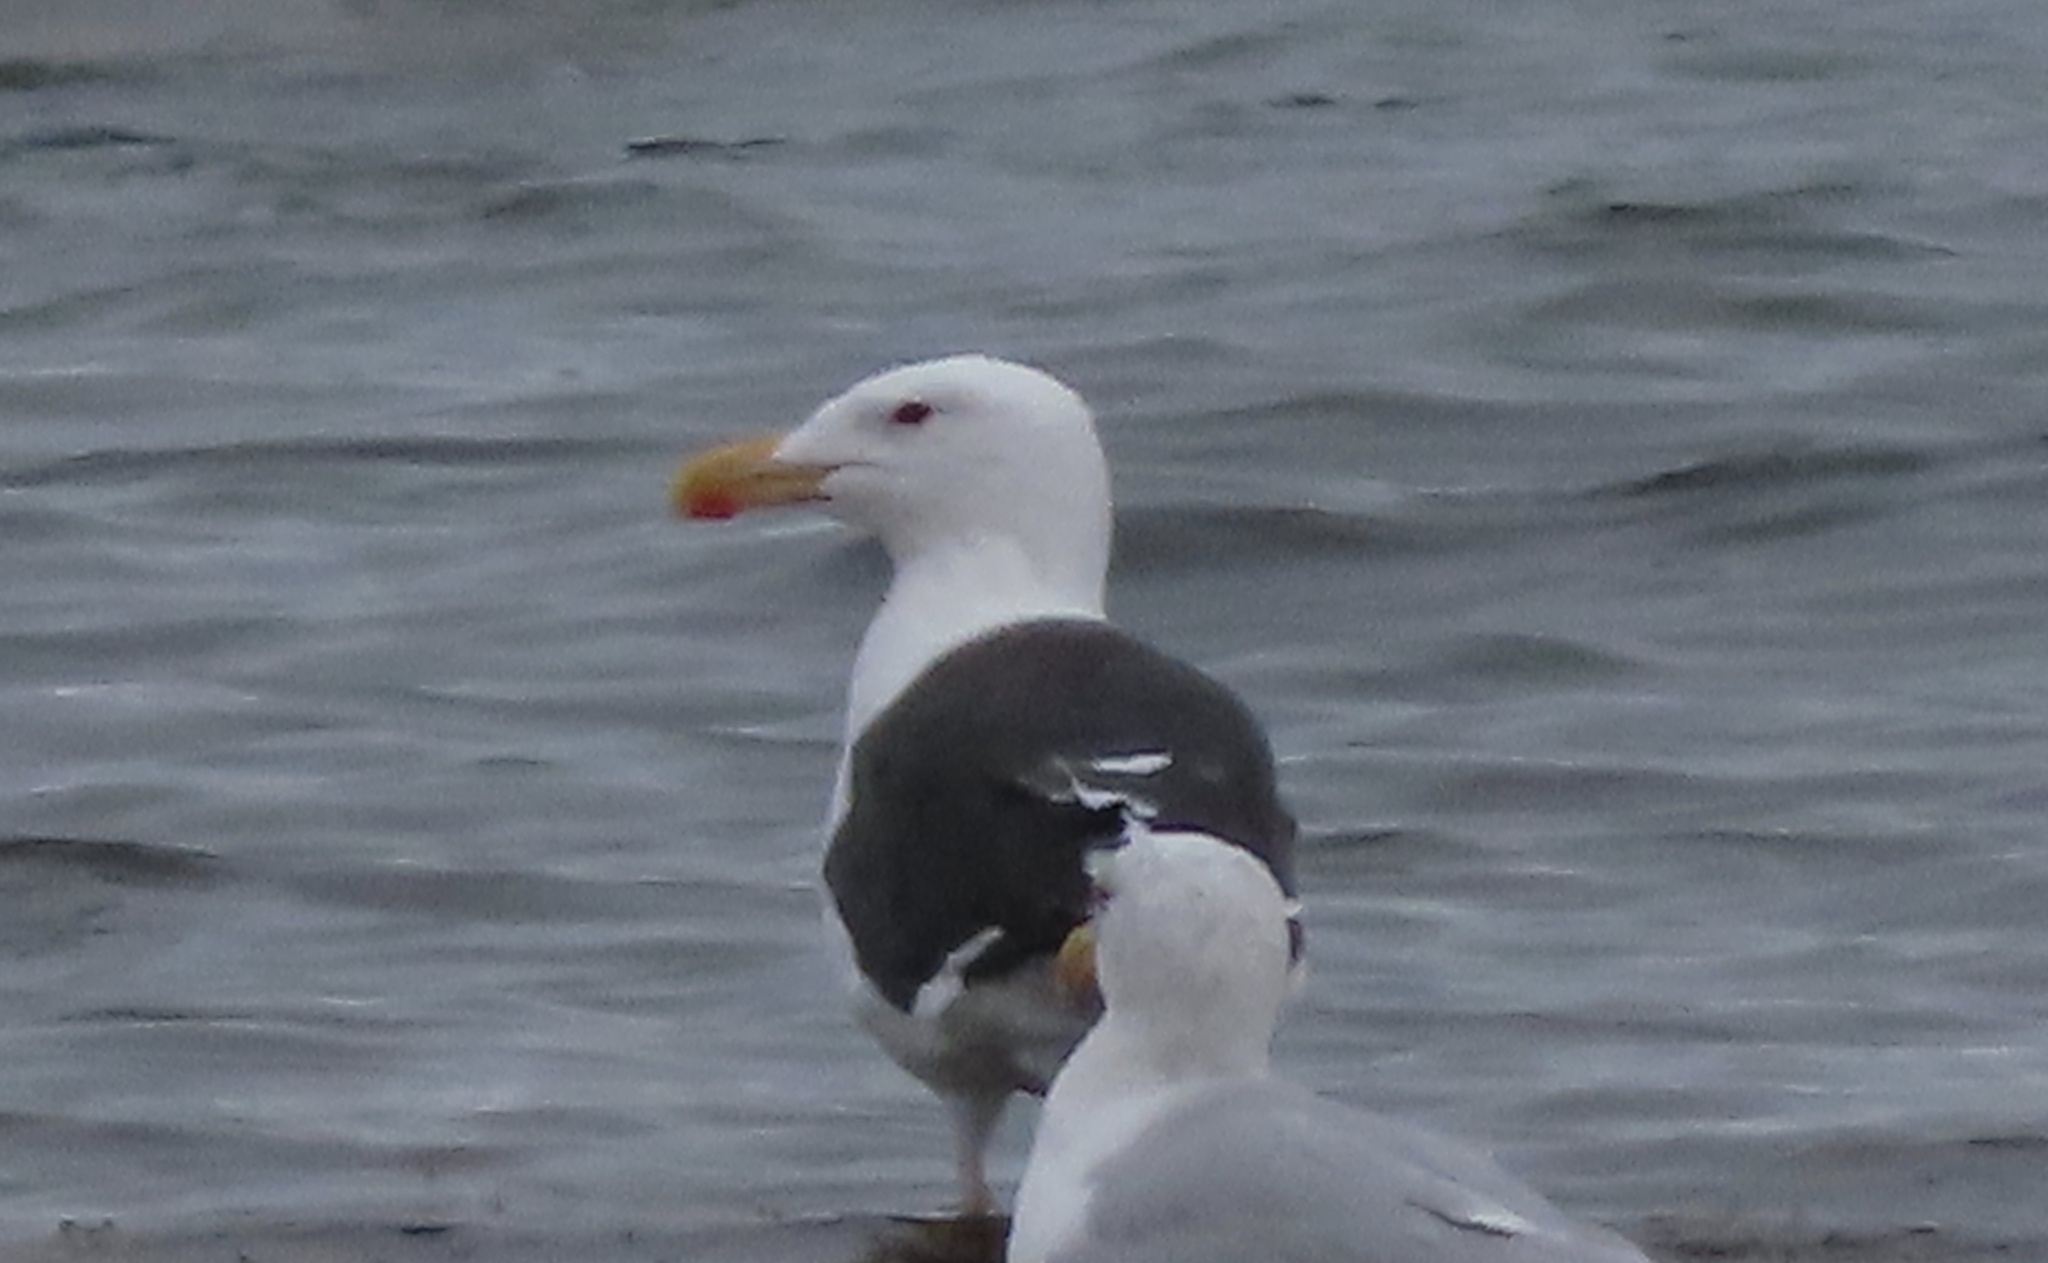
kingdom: Animalia
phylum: Chordata
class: Aves
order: Charadriiformes
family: Laridae
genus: Larus
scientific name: Larus marinus
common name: Great black-backed gull
